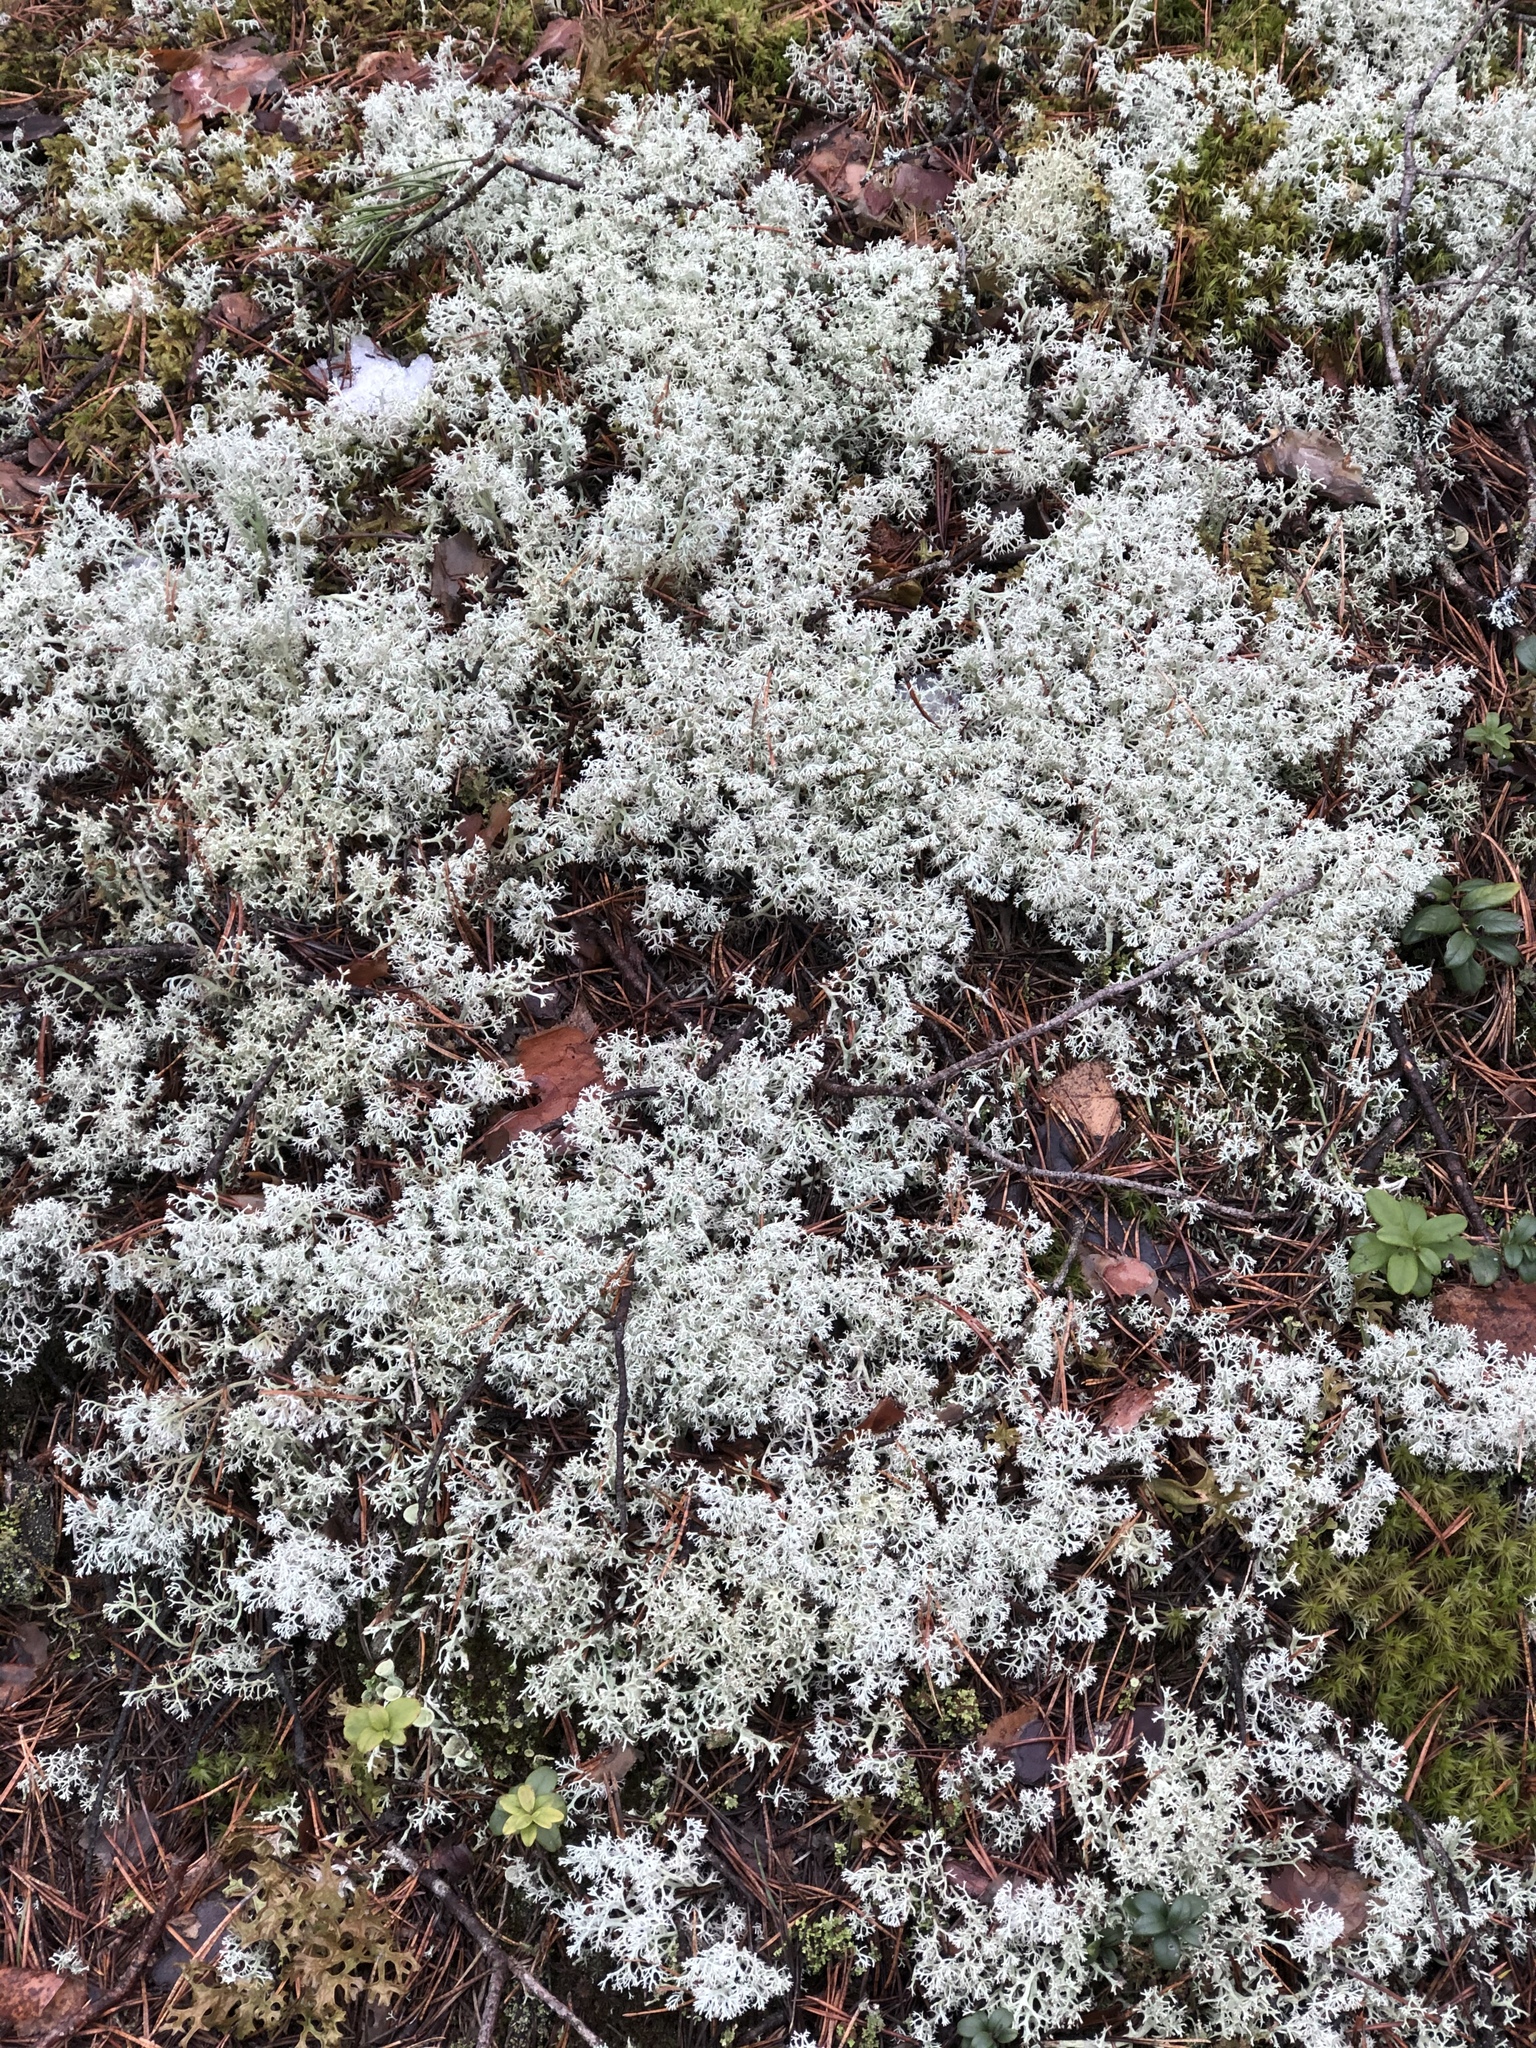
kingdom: Fungi
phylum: Ascomycota
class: Lecanoromycetes
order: Lecanorales
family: Cladoniaceae
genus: Cladonia
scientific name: Cladonia arbuscula
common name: Reindeer lichen
